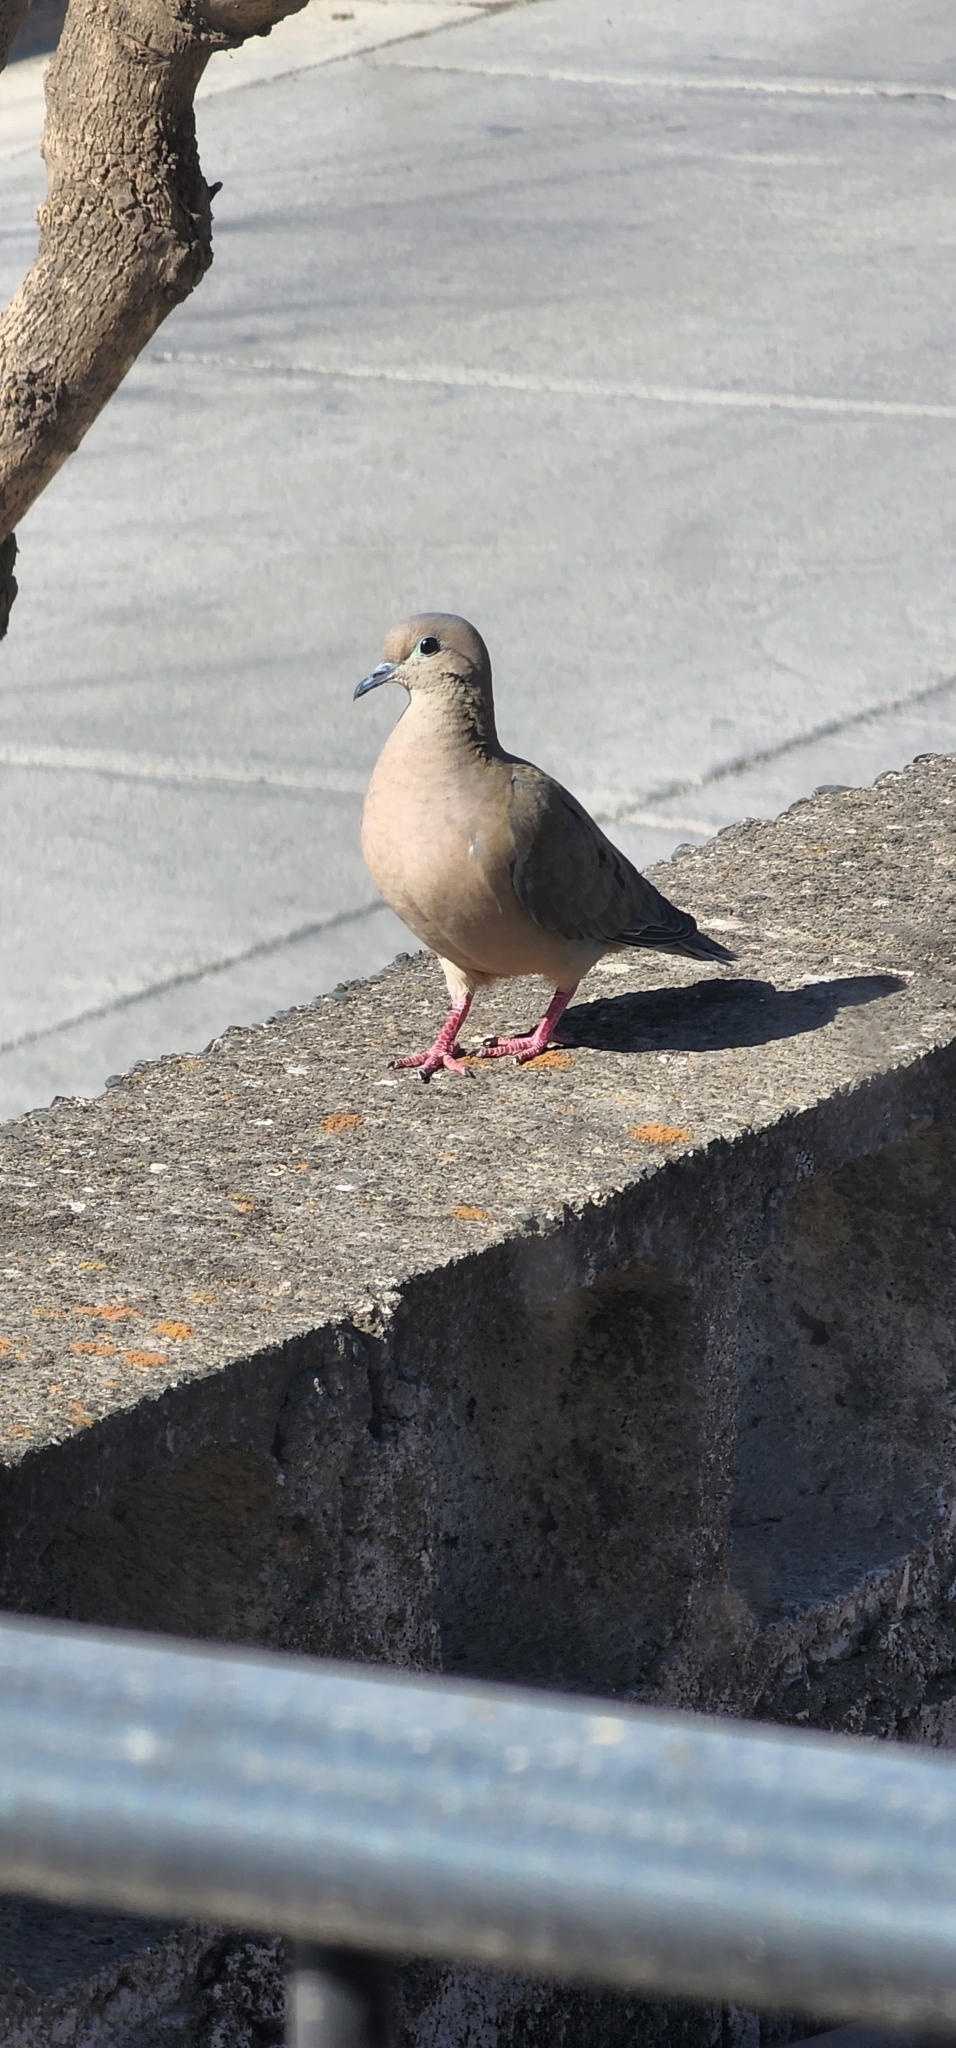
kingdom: Animalia
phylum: Chordata
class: Aves
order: Columbiformes
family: Columbidae
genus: Zenaida
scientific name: Zenaida auriculata
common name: Eared dove
